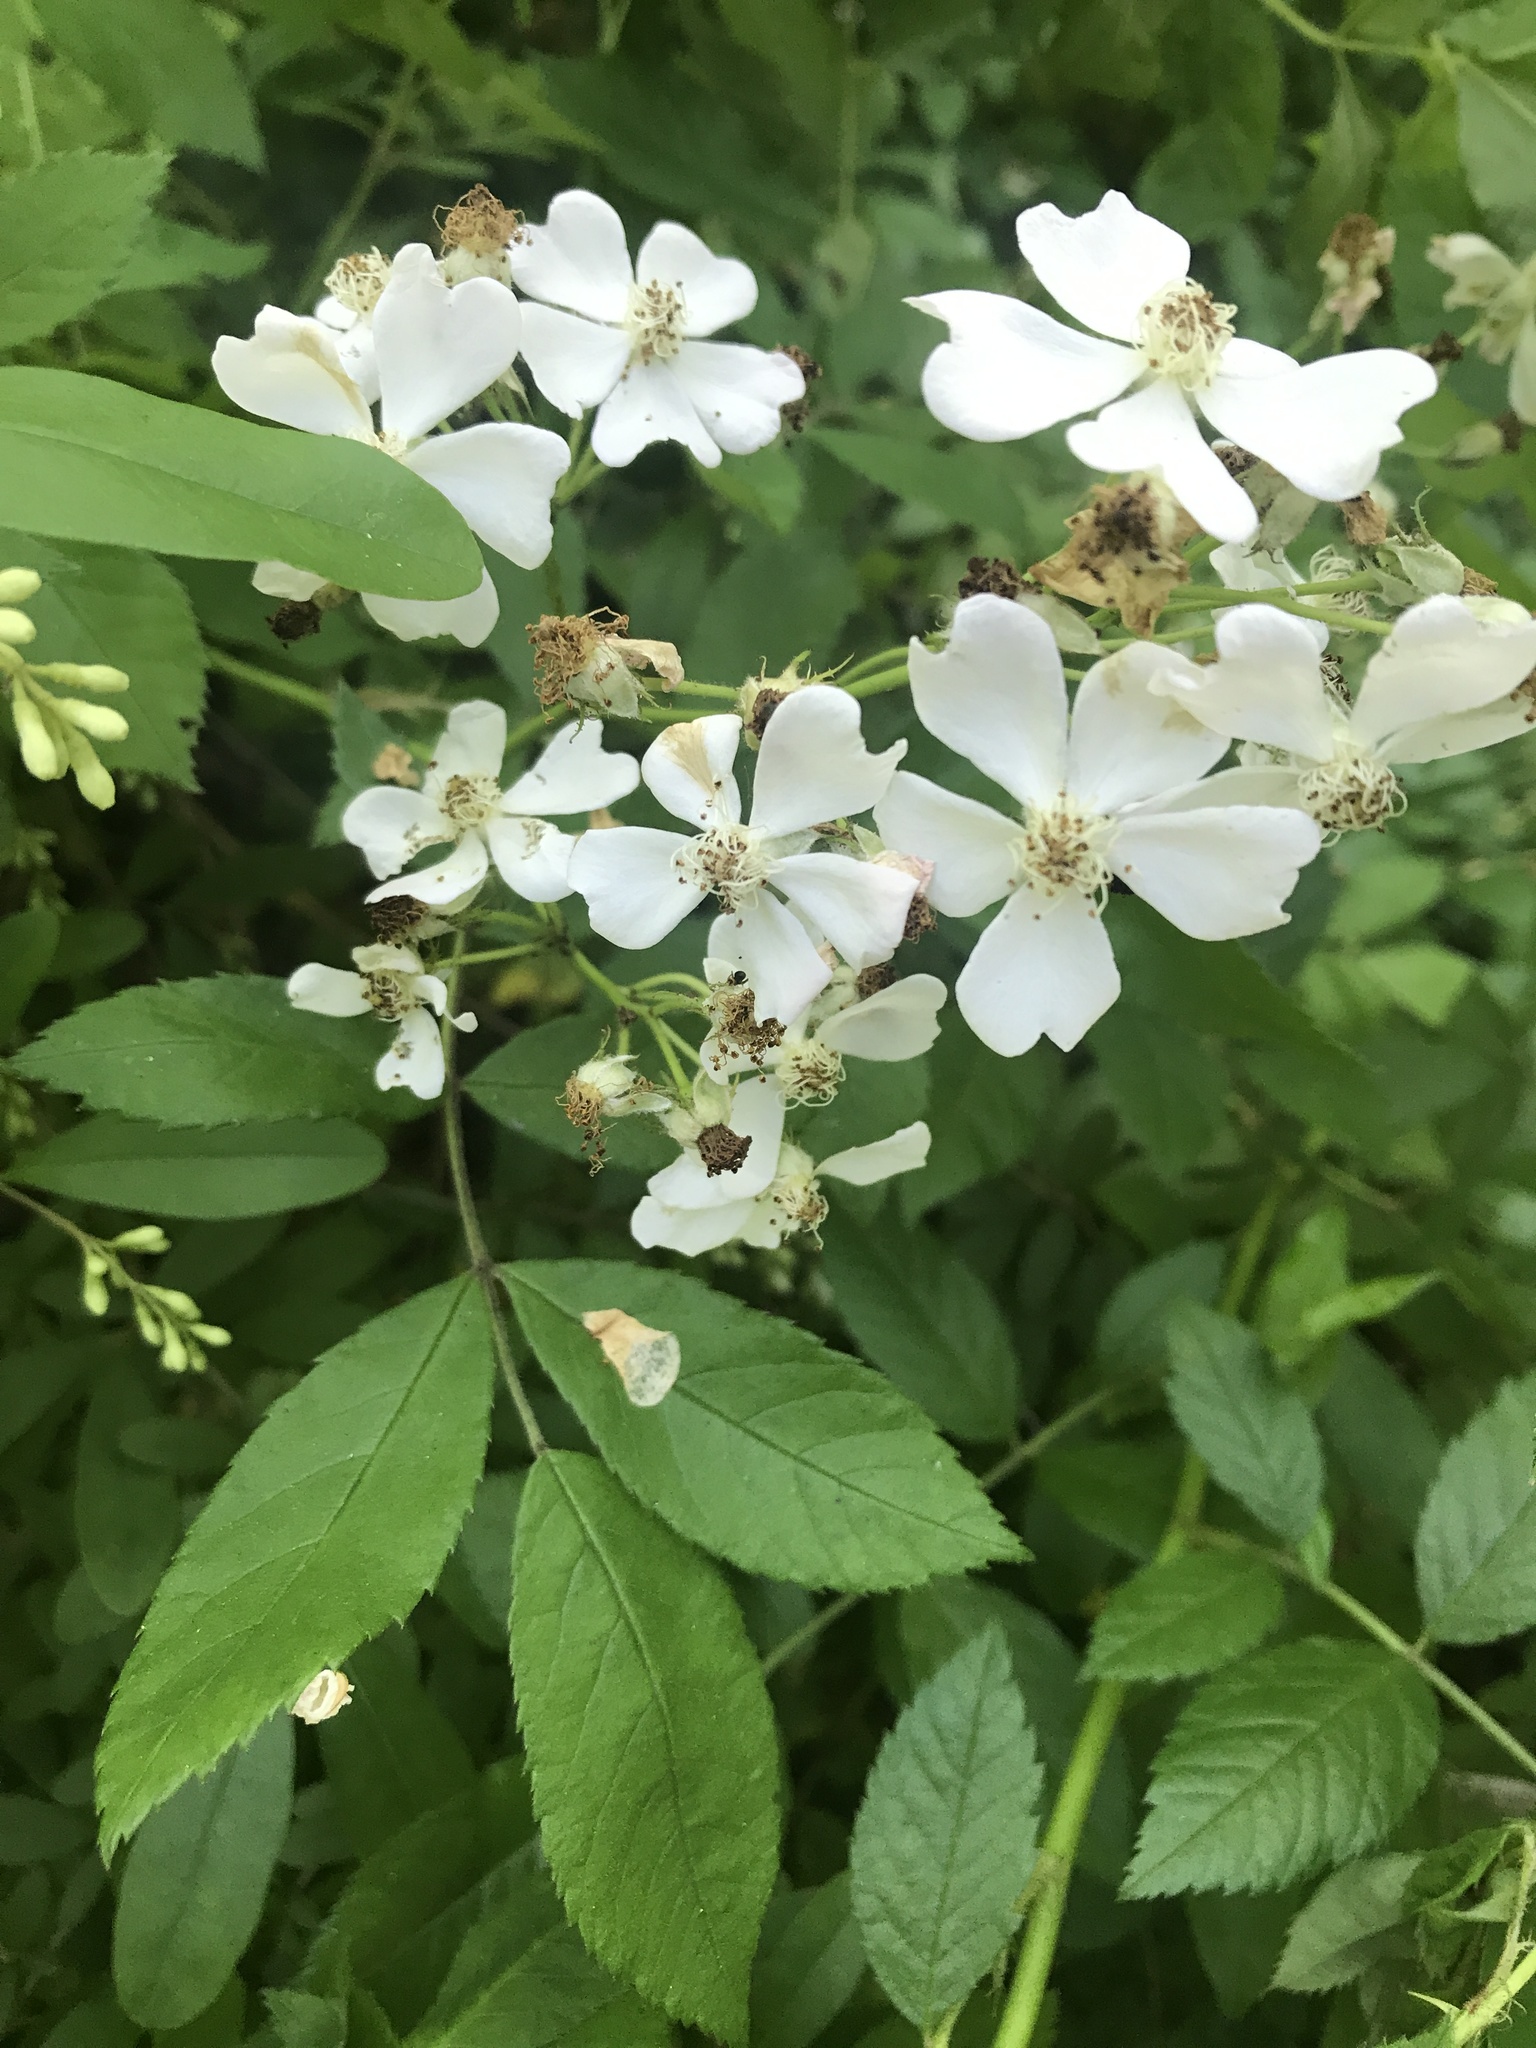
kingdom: Plantae
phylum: Tracheophyta
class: Magnoliopsida
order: Rosales
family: Rosaceae
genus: Rosa
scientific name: Rosa multiflora
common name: Multiflora rose
